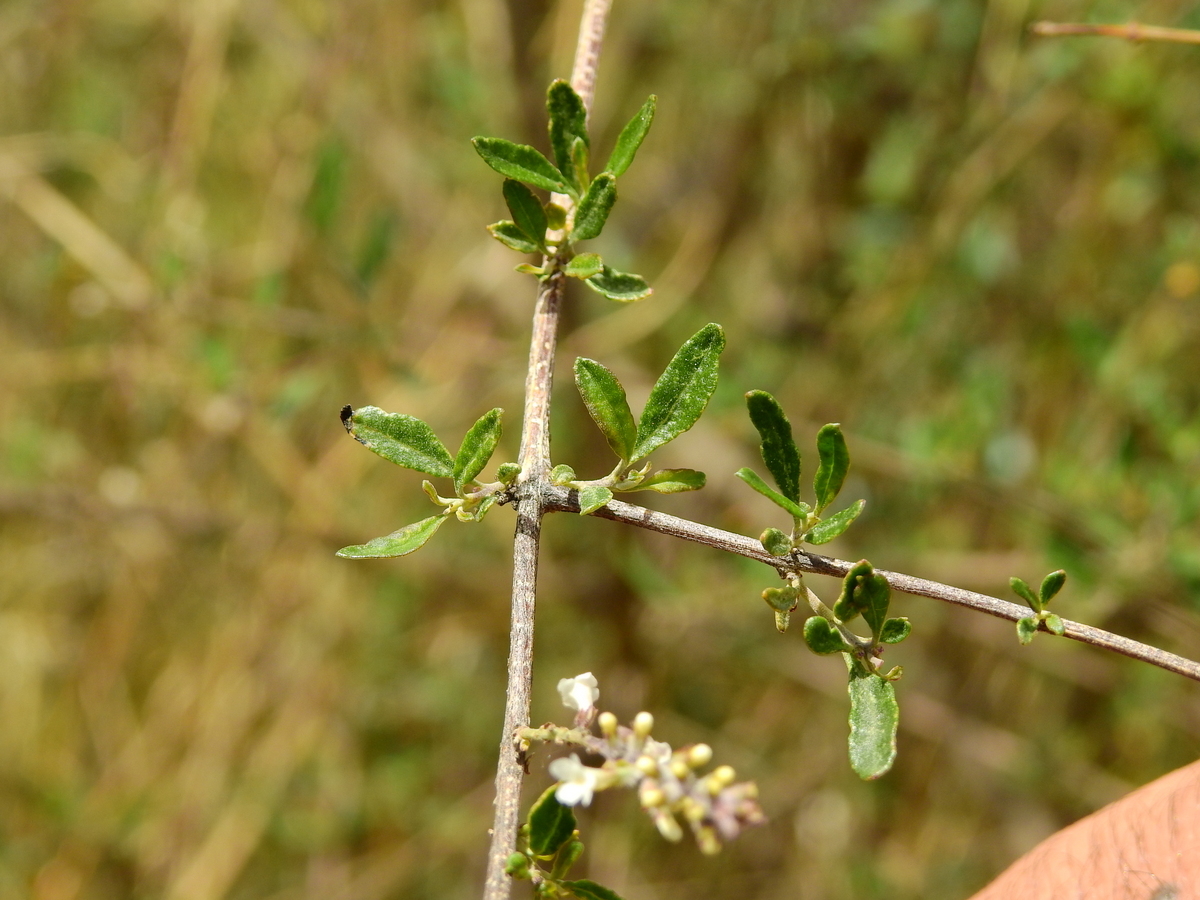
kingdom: Plantae
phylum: Tracheophyta
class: Magnoliopsida
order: Lamiales
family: Verbenaceae
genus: Aloysia
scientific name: Aloysia gratissima
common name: Common bee-brush
